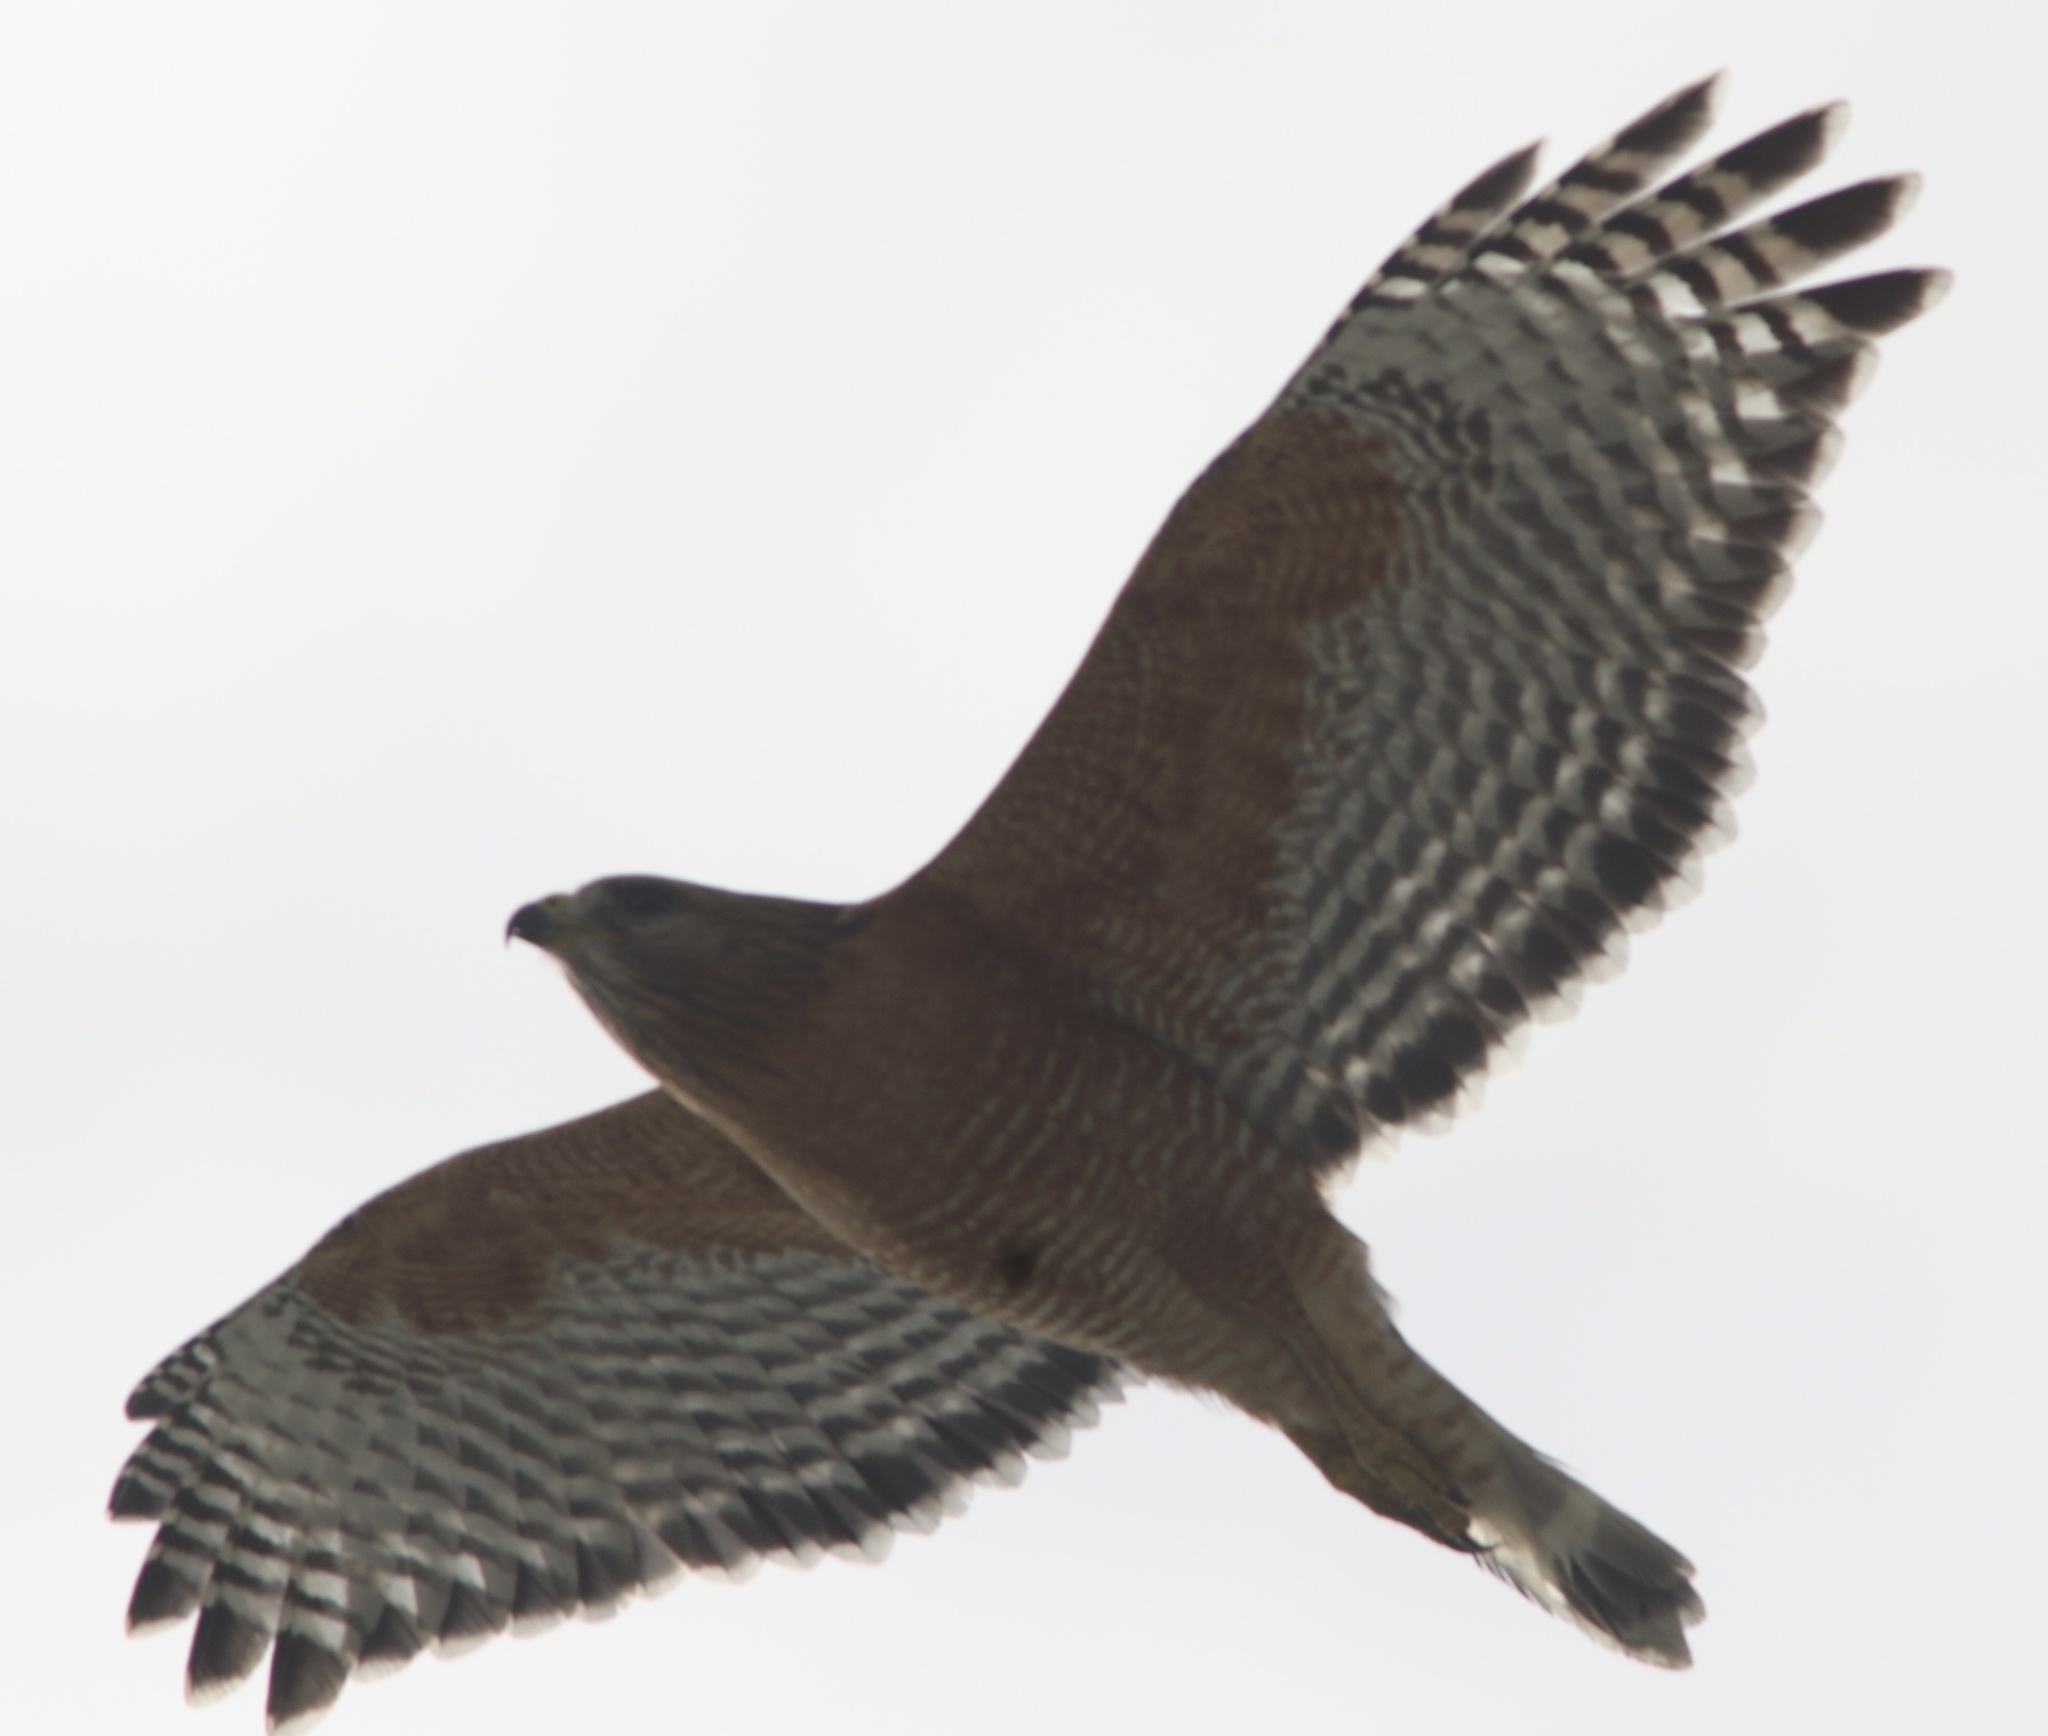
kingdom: Animalia
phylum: Chordata
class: Aves
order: Accipitriformes
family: Accipitridae
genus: Buteo
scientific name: Buteo lineatus
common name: Red-shouldered hawk
